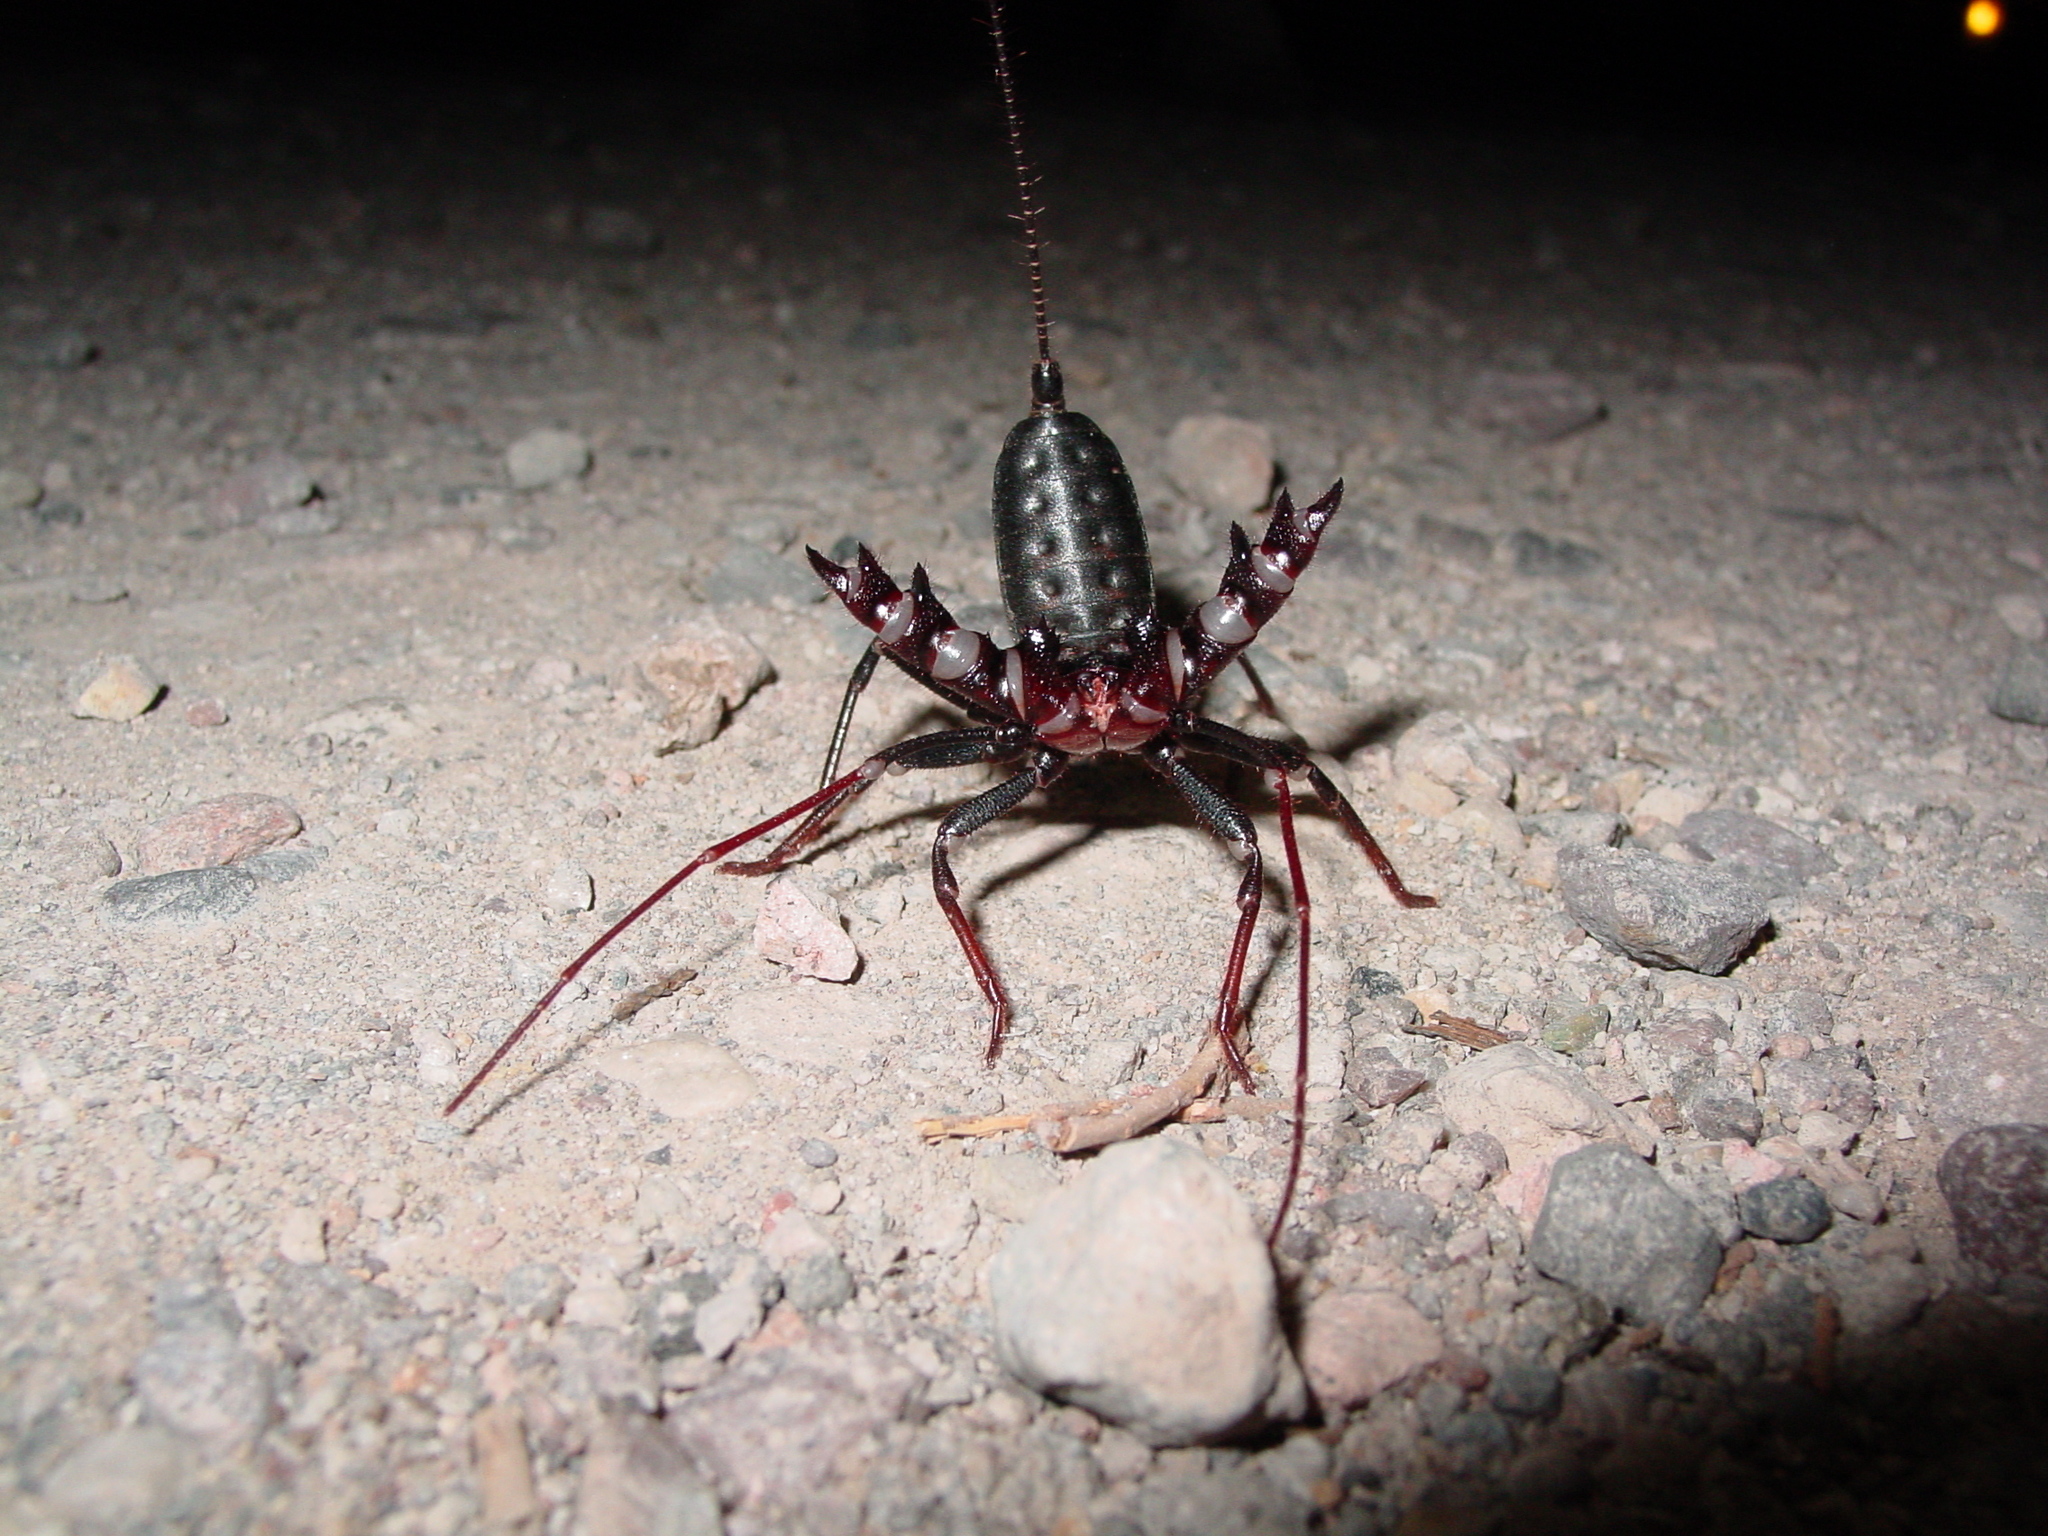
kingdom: Animalia
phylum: Arthropoda
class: Arachnida
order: Uropygi
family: Thelyphonidae
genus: Mastigoproctus
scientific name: Mastigoproctus tohono
